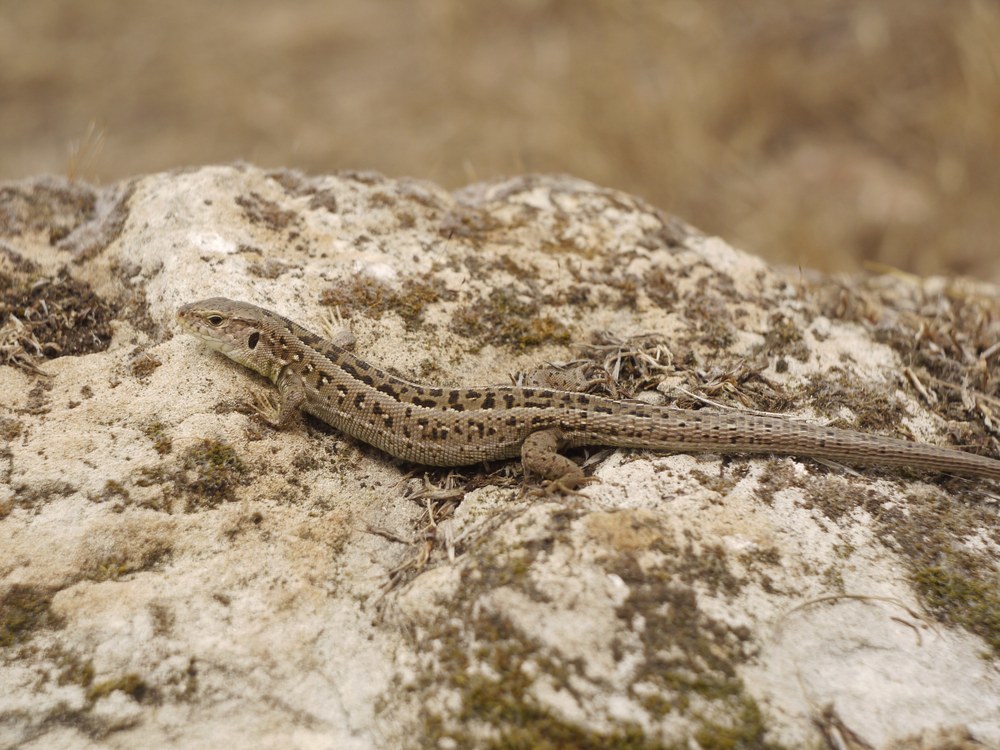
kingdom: Animalia
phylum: Chordata
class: Squamata
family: Lacertidae
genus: Lacerta
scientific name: Lacerta agilis
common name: Sand lizard
